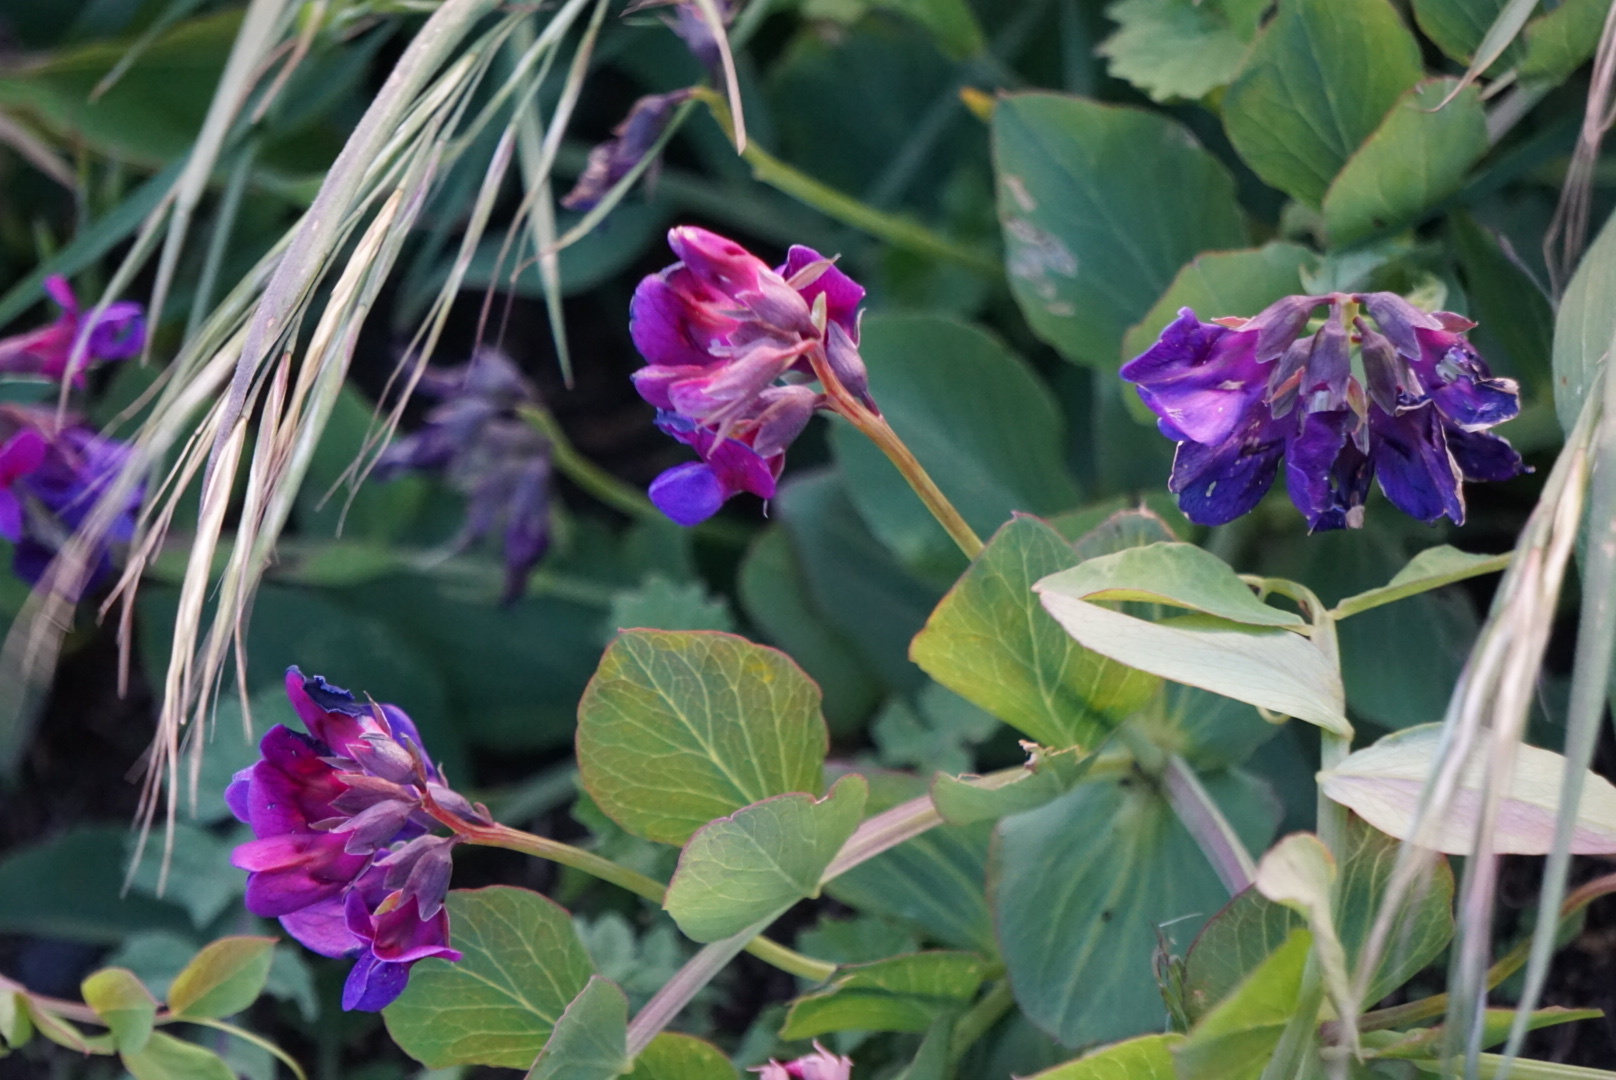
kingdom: Plantae
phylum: Tracheophyta
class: Magnoliopsida
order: Fabales
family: Fabaceae
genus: Lathyrus
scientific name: Lathyrus japonicus
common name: Sea pea
